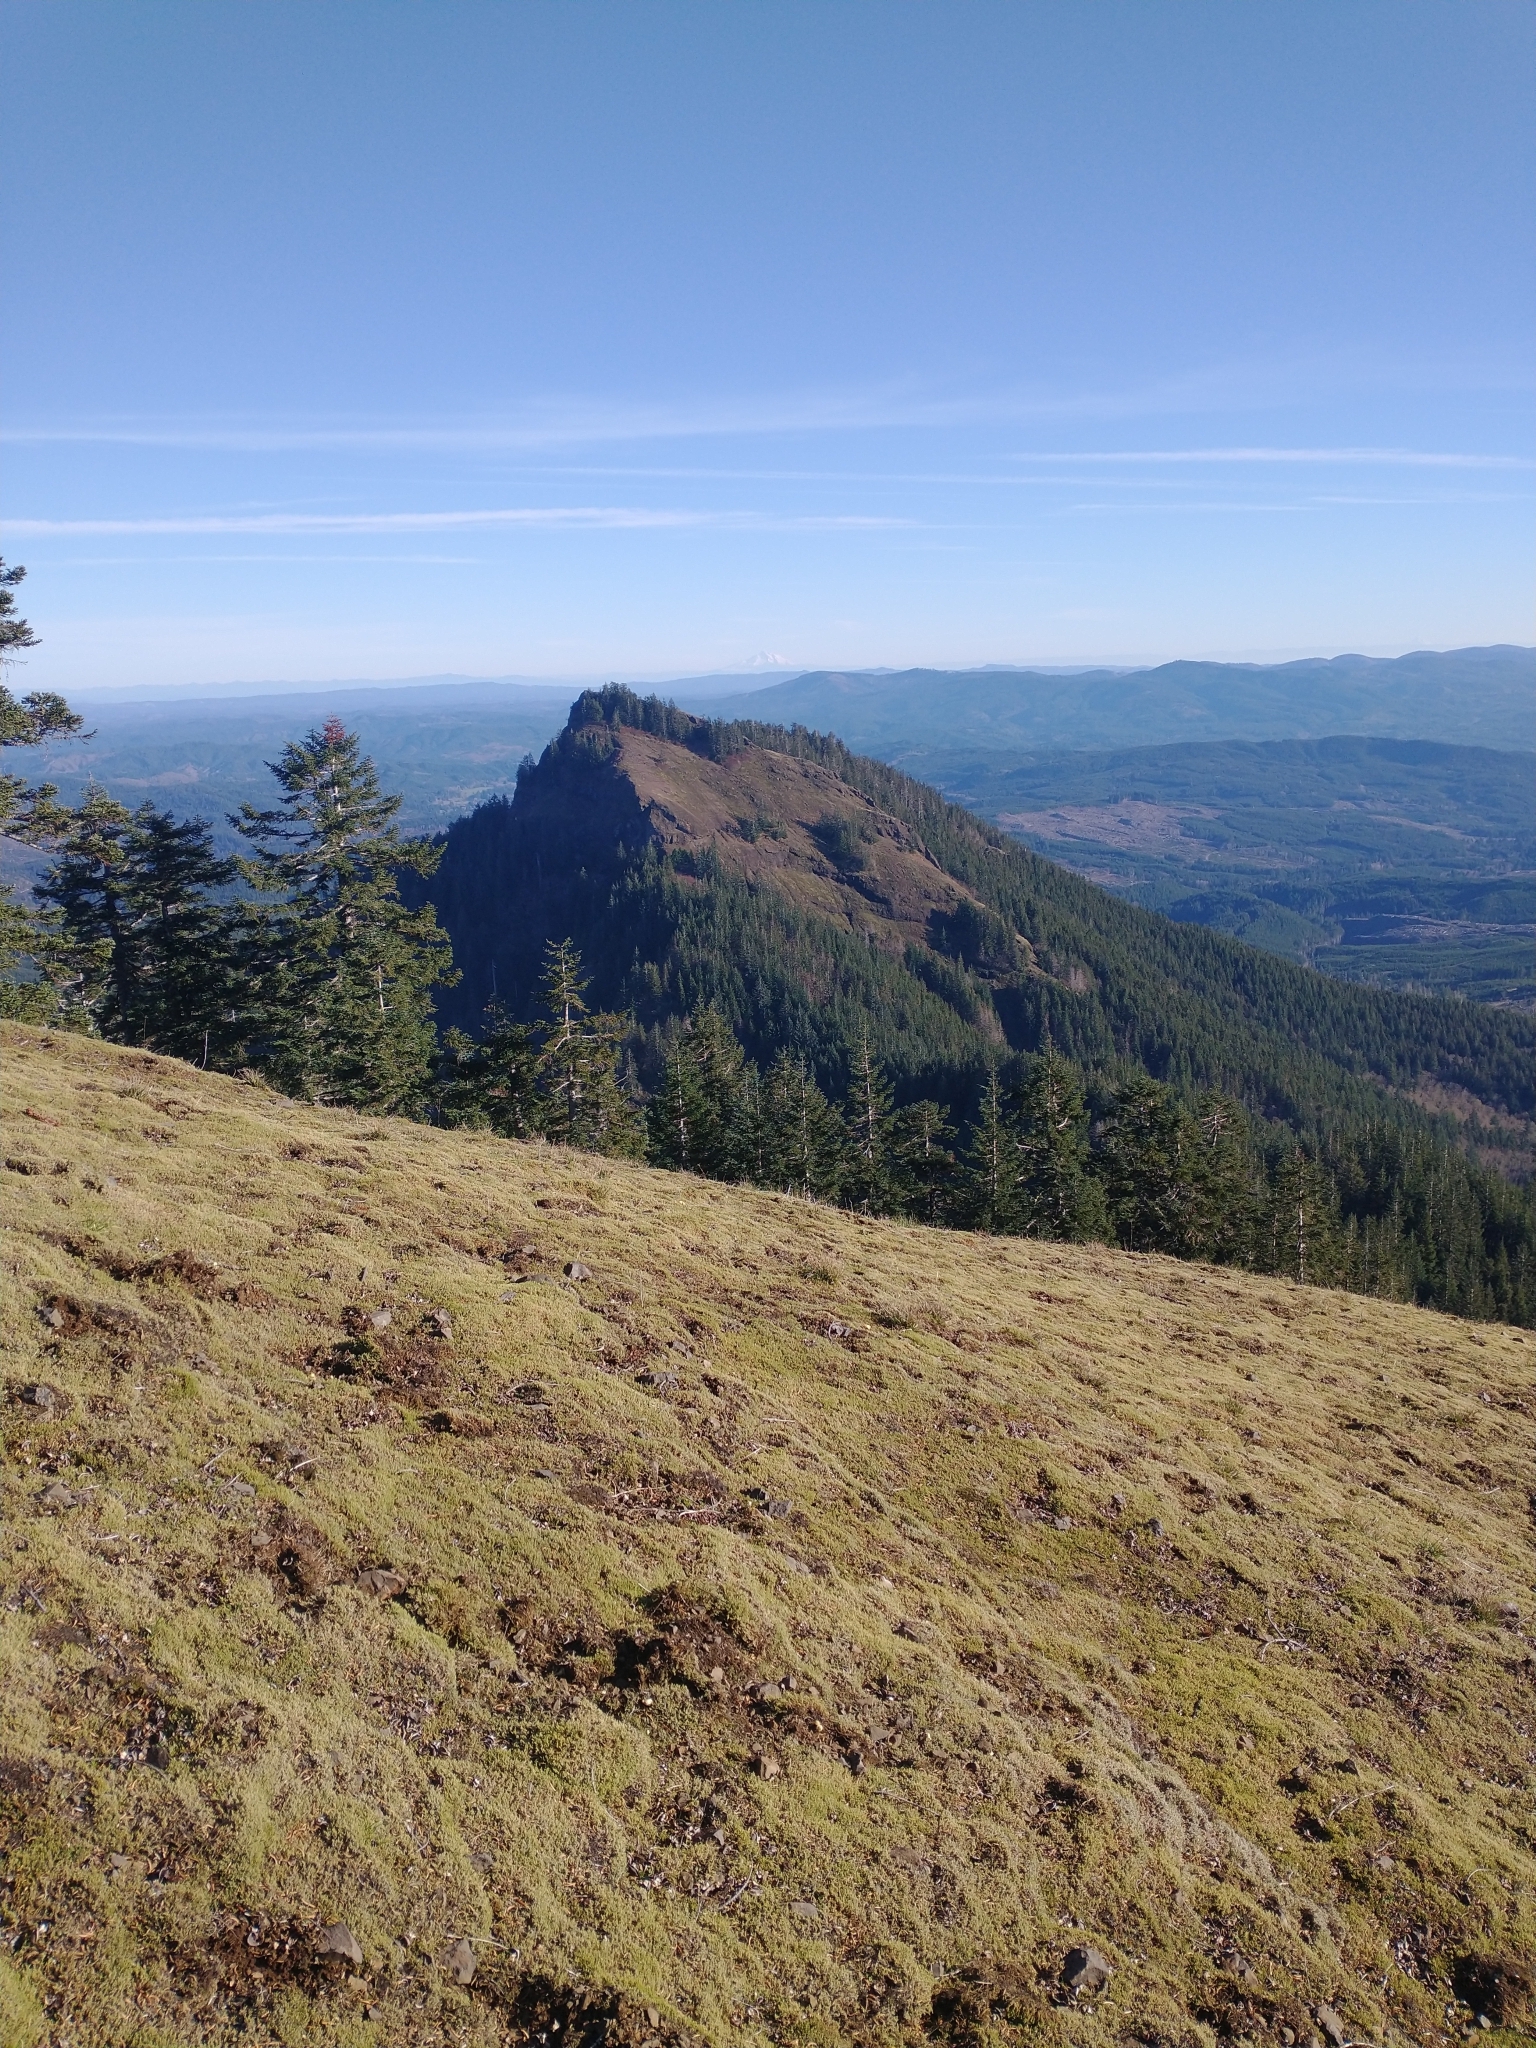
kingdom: Plantae
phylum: Tracheophyta
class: Pinopsida
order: Pinales
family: Pinaceae
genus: Abies
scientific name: Abies procera
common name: Noble fir
